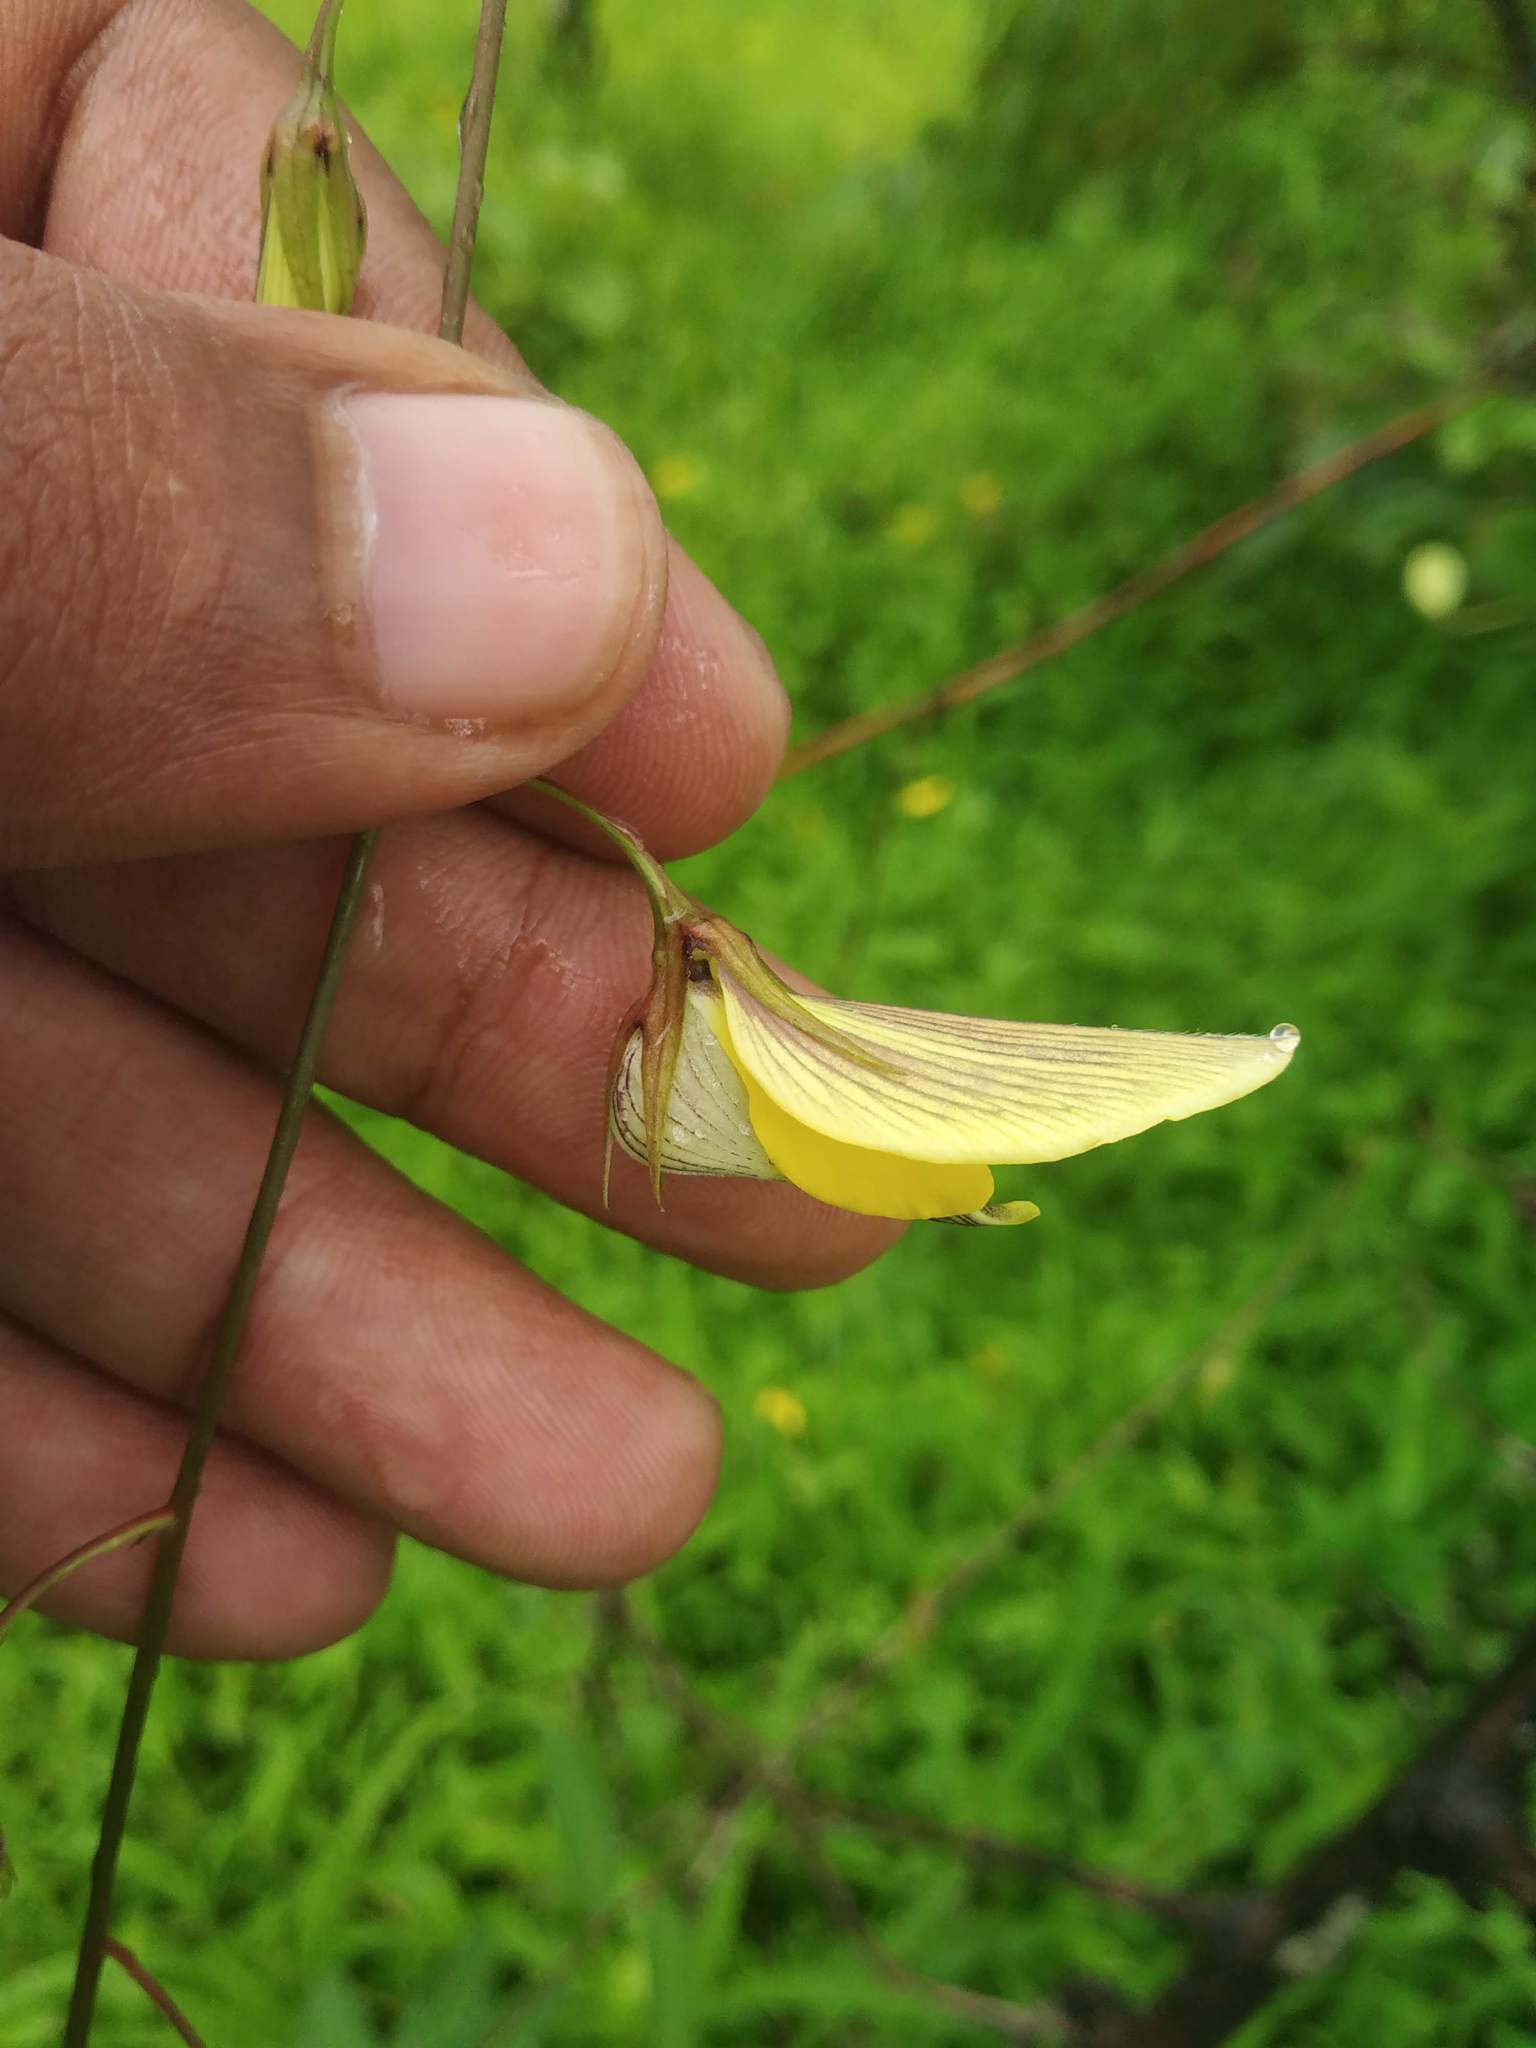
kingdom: Plantae
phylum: Tracheophyta
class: Magnoliopsida
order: Fabales
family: Fabaceae
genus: Crotalaria
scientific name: Crotalaria lutescens
